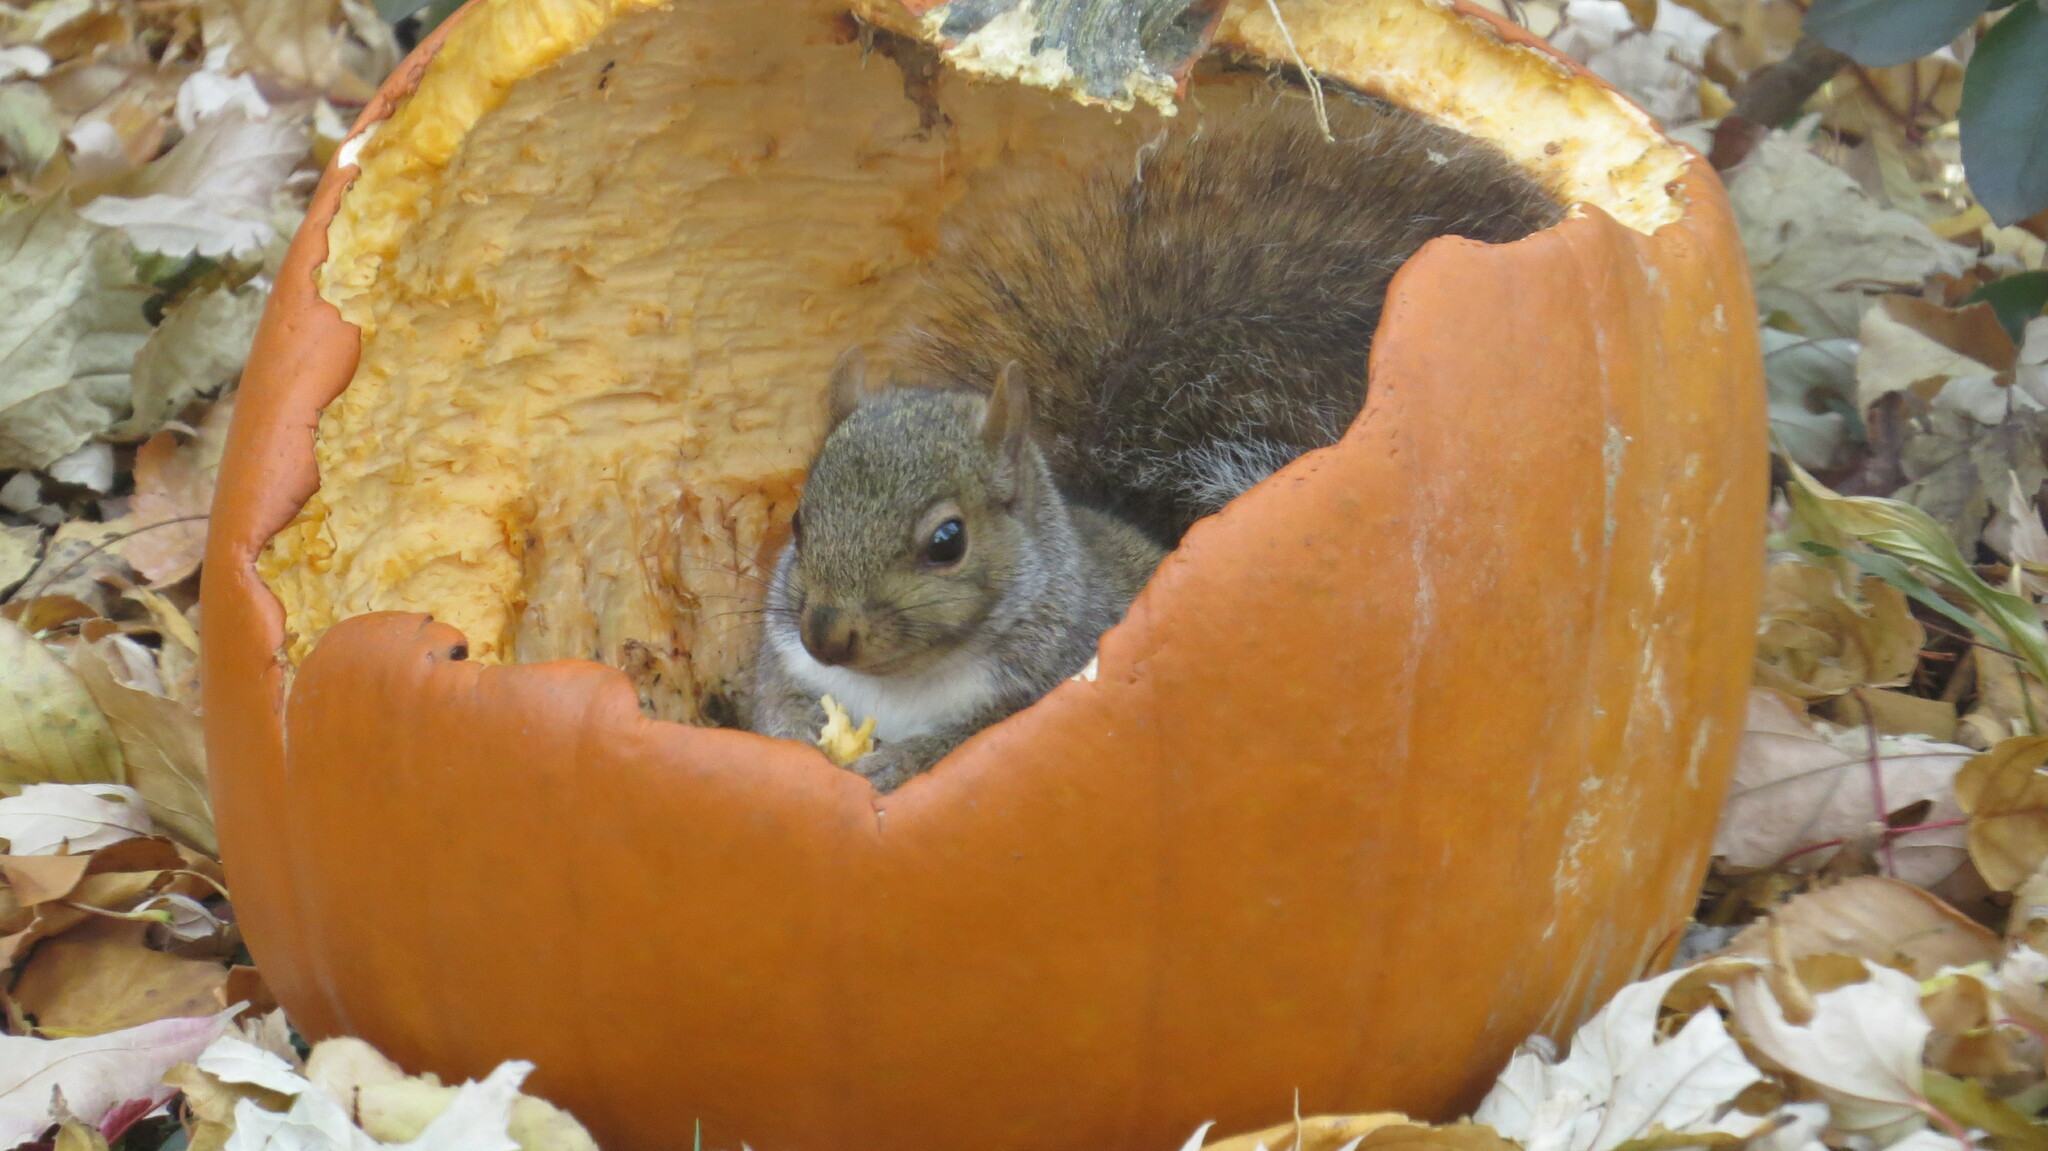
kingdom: Animalia
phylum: Chordata
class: Mammalia
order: Rodentia
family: Sciuridae
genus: Sciurus
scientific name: Sciurus carolinensis
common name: Eastern gray squirrel
